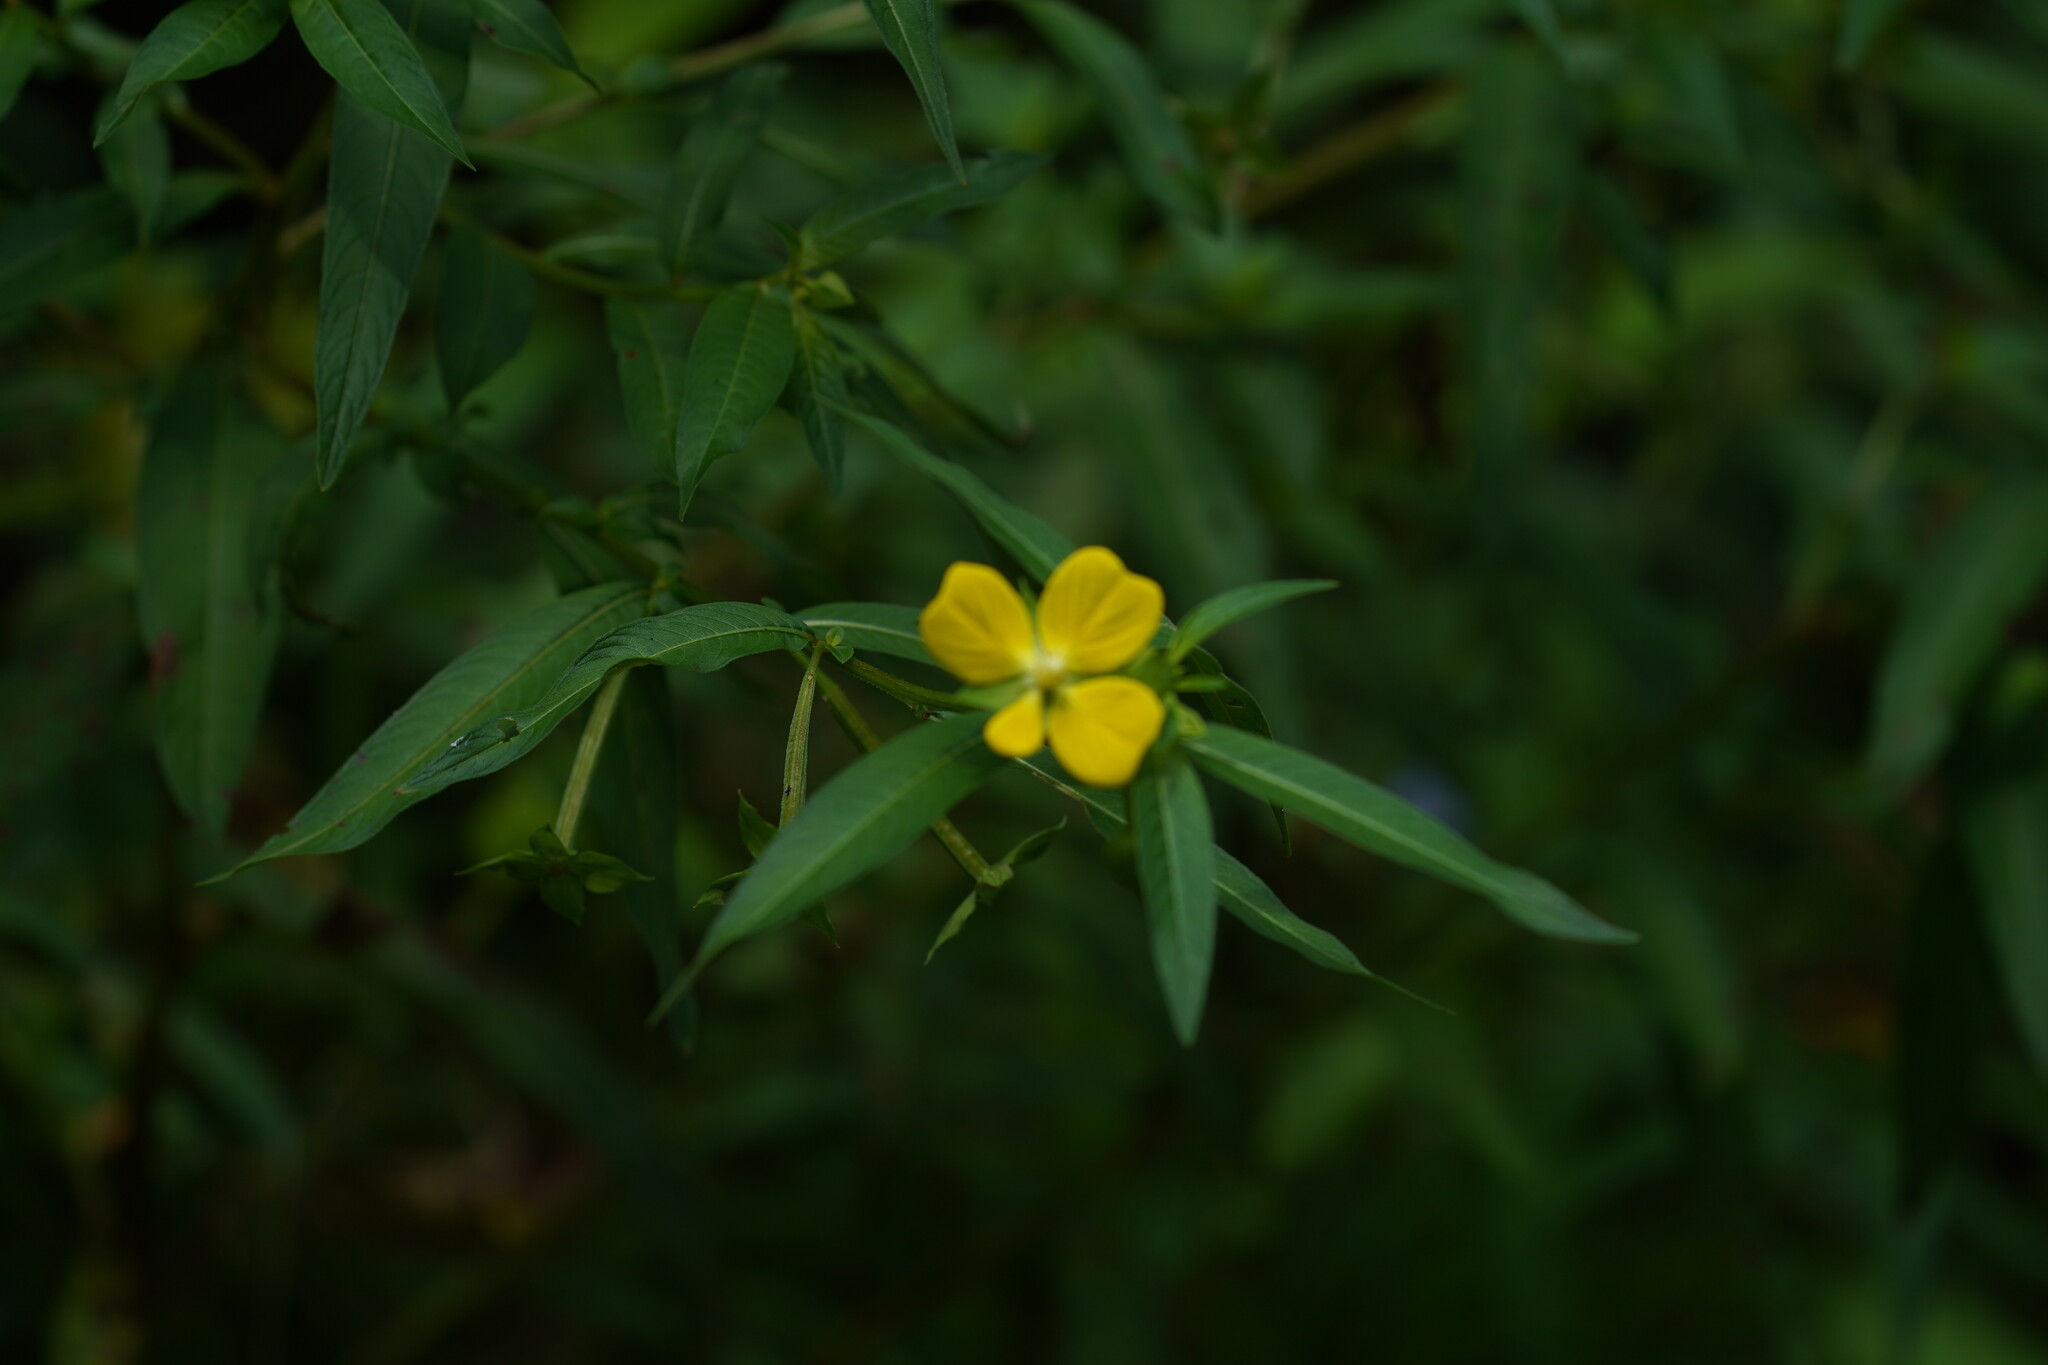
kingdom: Plantae
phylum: Tracheophyta
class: Magnoliopsida
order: Myrtales
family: Onagraceae
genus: Ludwigia
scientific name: Ludwigia octovalvis
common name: Water-primrose
